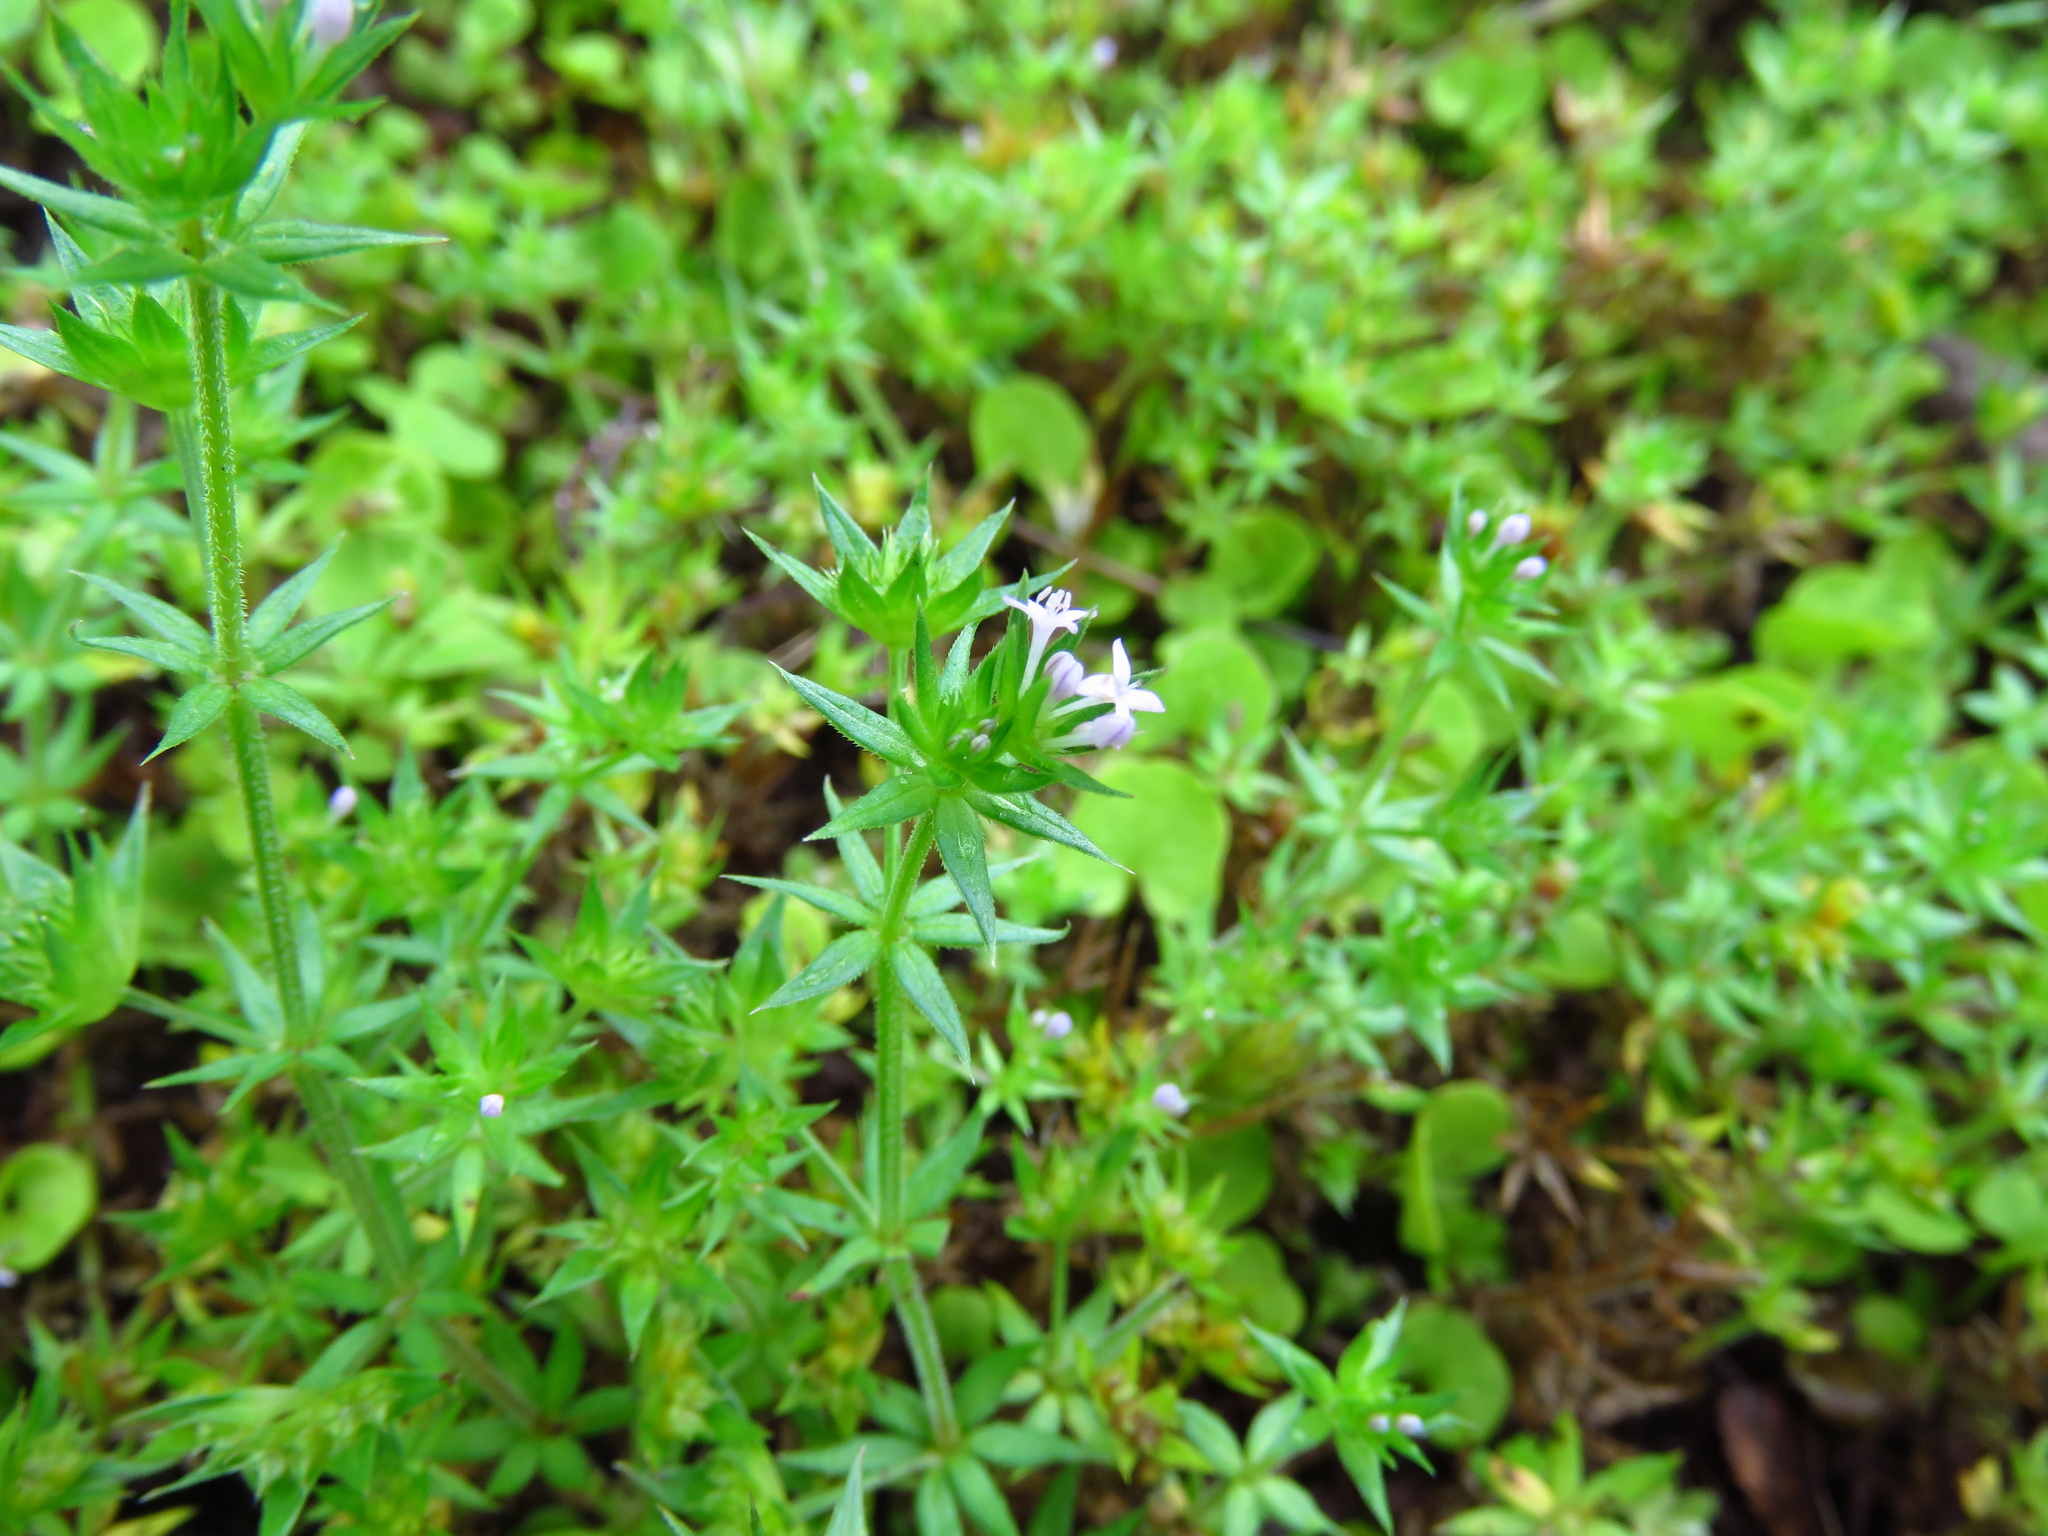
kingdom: Plantae
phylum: Tracheophyta
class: Magnoliopsida
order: Gentianales
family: Rubiaceae
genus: Sherardia
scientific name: Sherardia arvensis
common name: Field madder
